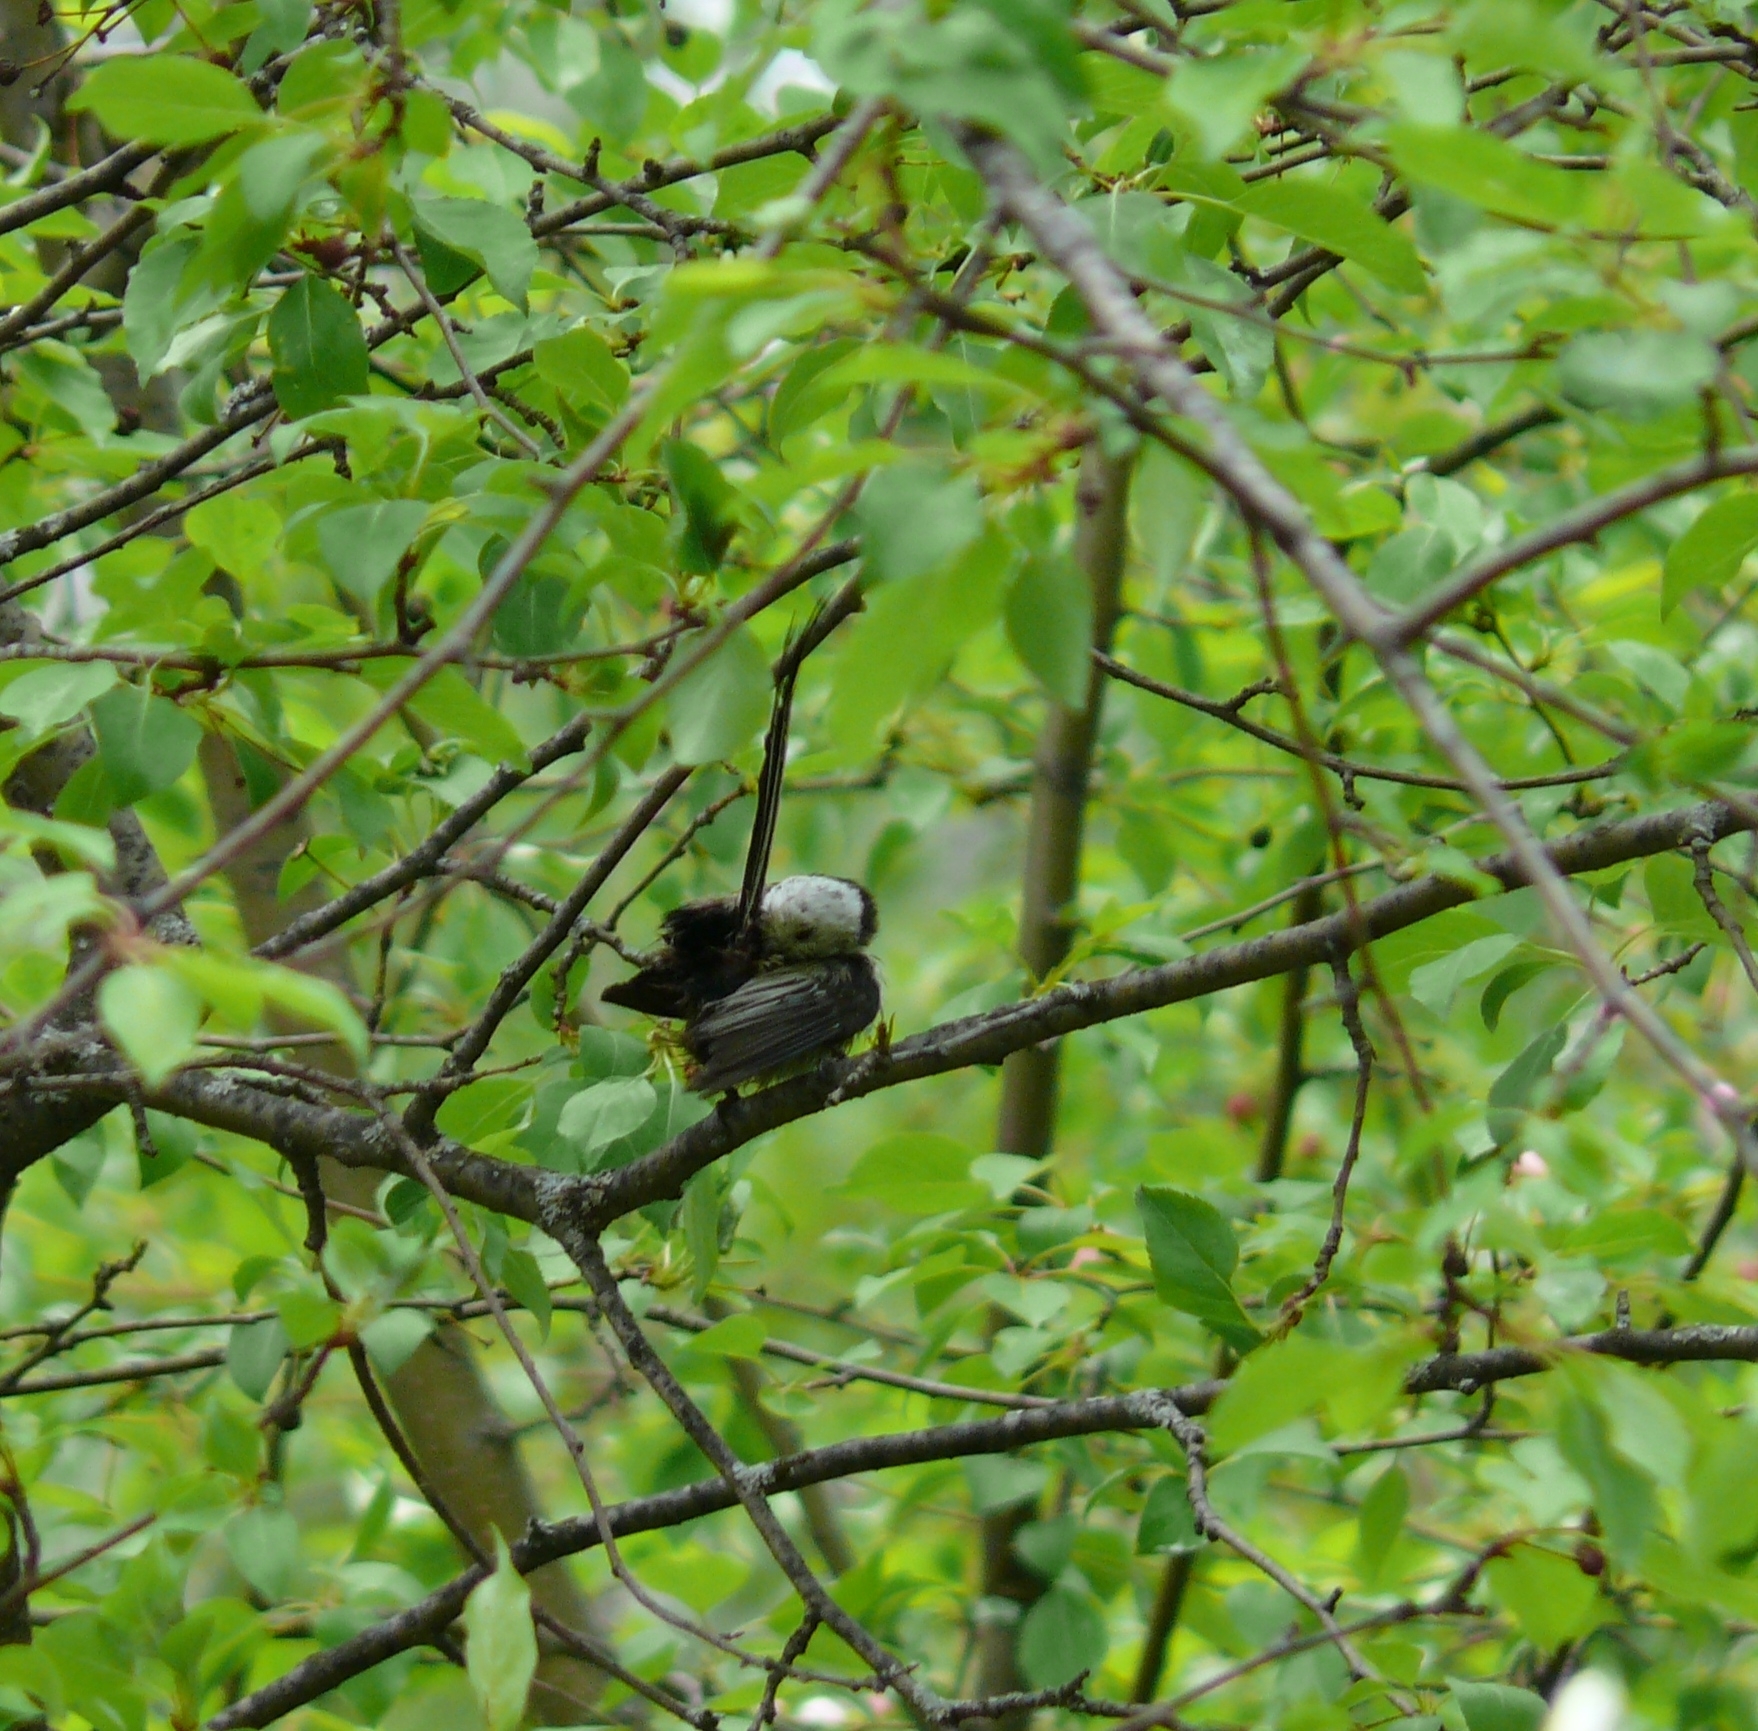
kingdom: Animalia
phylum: Chordata
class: Aves
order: Passeriformes
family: Aegithalidae
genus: Aegithalos
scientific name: Aegithalos caudatus
